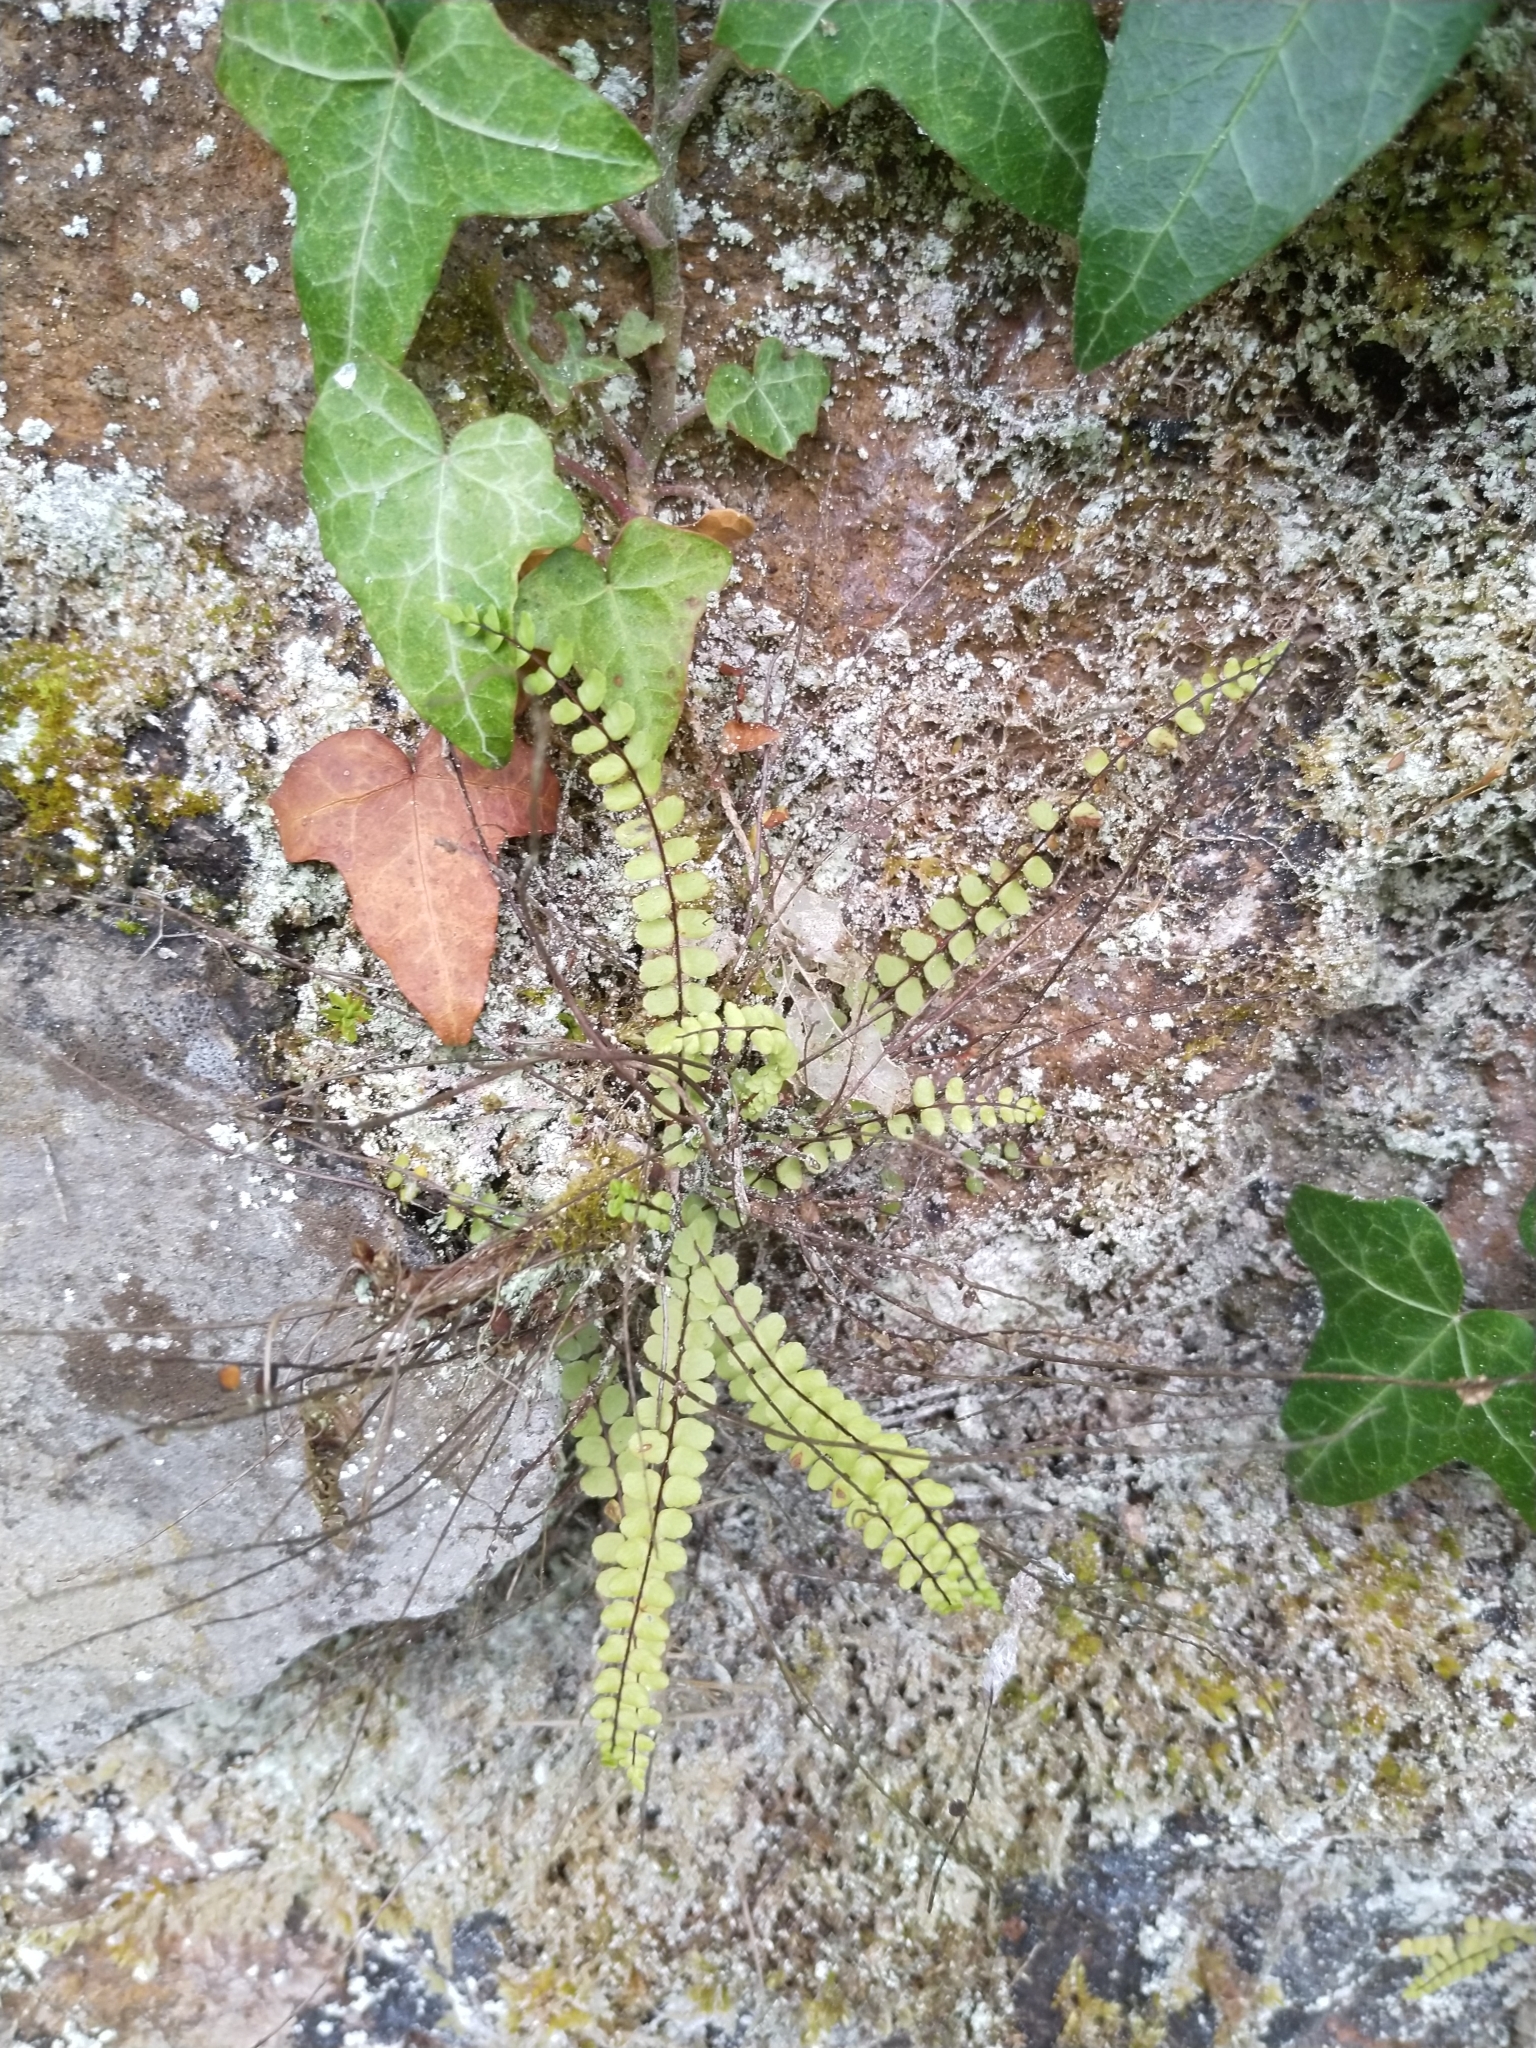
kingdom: Plantae
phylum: Tracheophyta
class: Polypodiopsida
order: Polypodiales
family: Aspleniaceae
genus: Asplenium
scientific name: Asplenium trichomanes
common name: Maidenhair spleenwort
